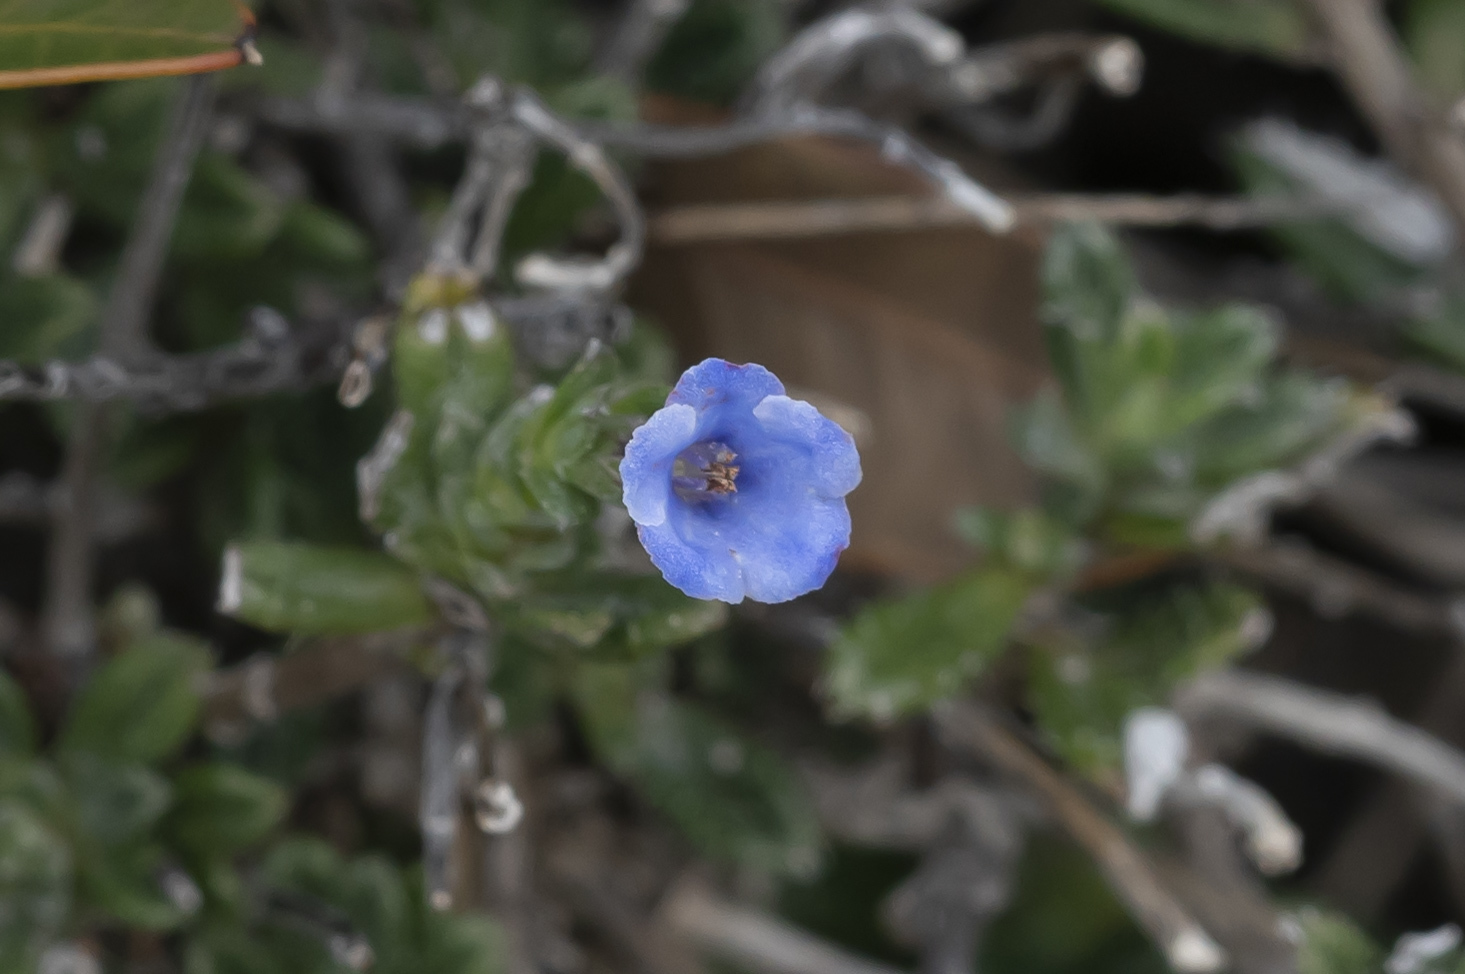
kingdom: Plantae
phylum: Tracheophyta
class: Magnoliopsida
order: Boraginales
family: Boraginaceae
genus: Lithodora
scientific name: Lithodora hispidula
